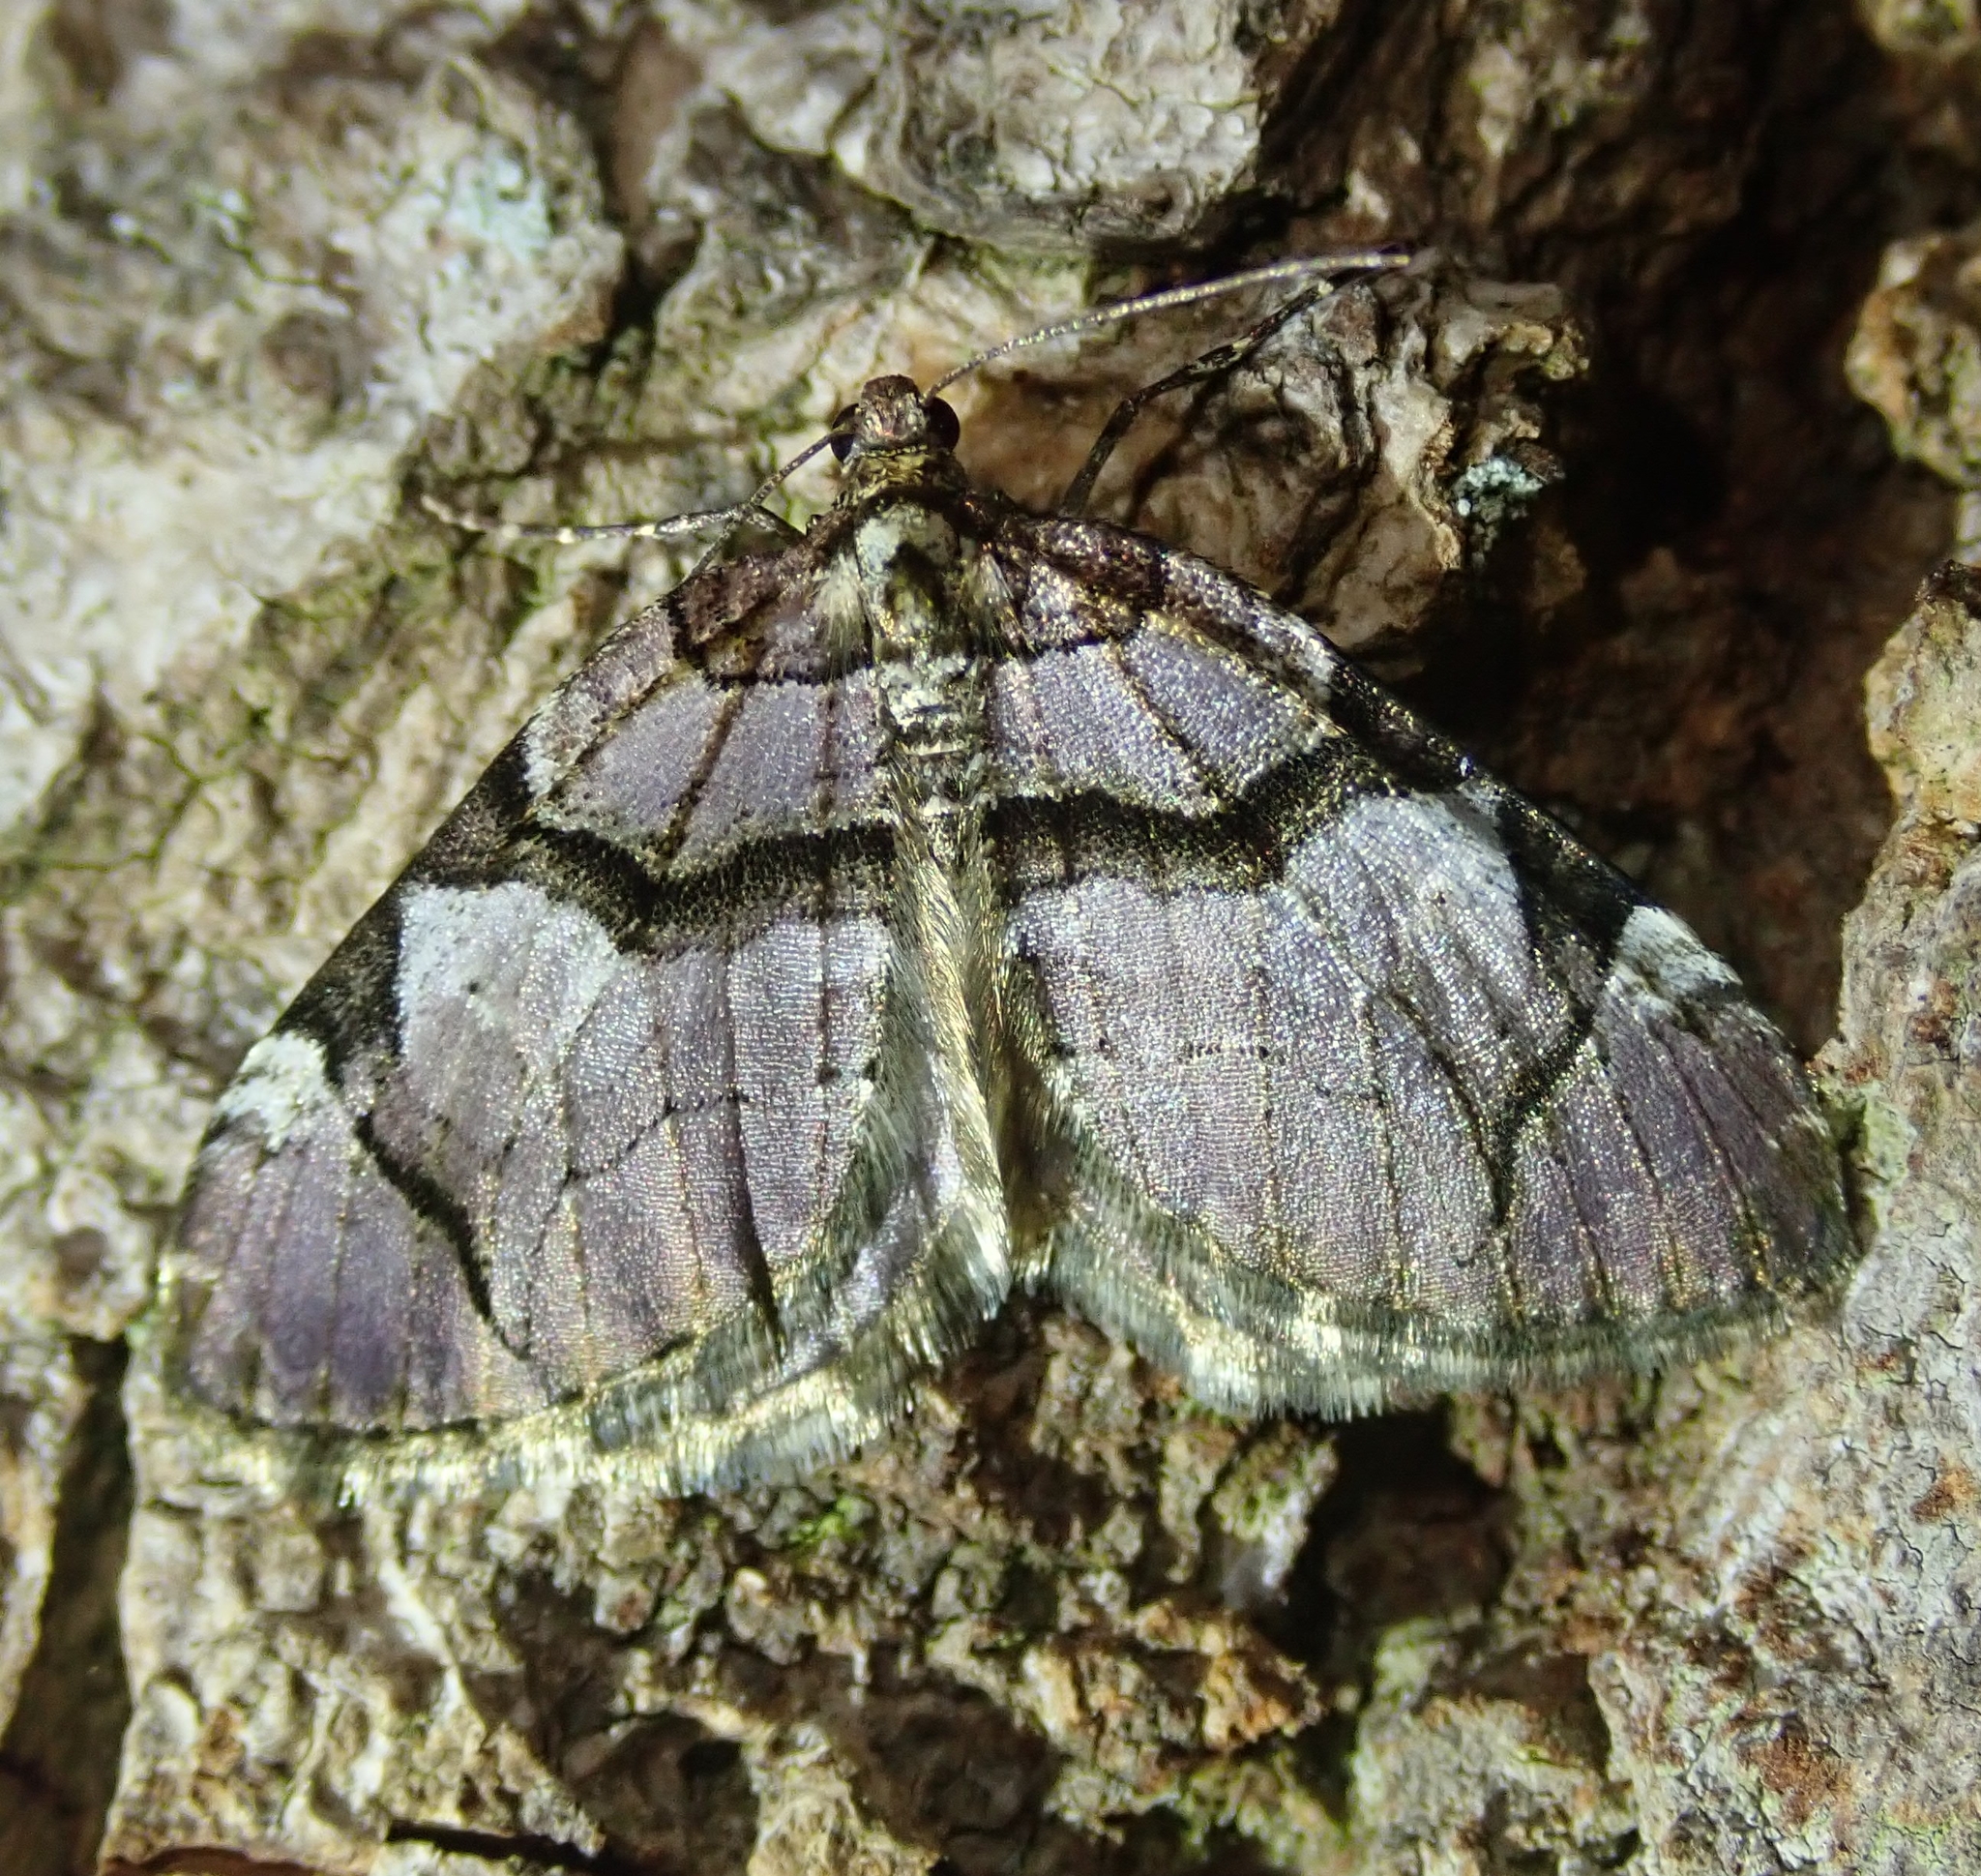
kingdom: Animalia
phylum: Arthropoda
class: Insecta
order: Lepidoptera
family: Geometridae
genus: Anticlea
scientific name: Anticlea derivata
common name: Streamer
